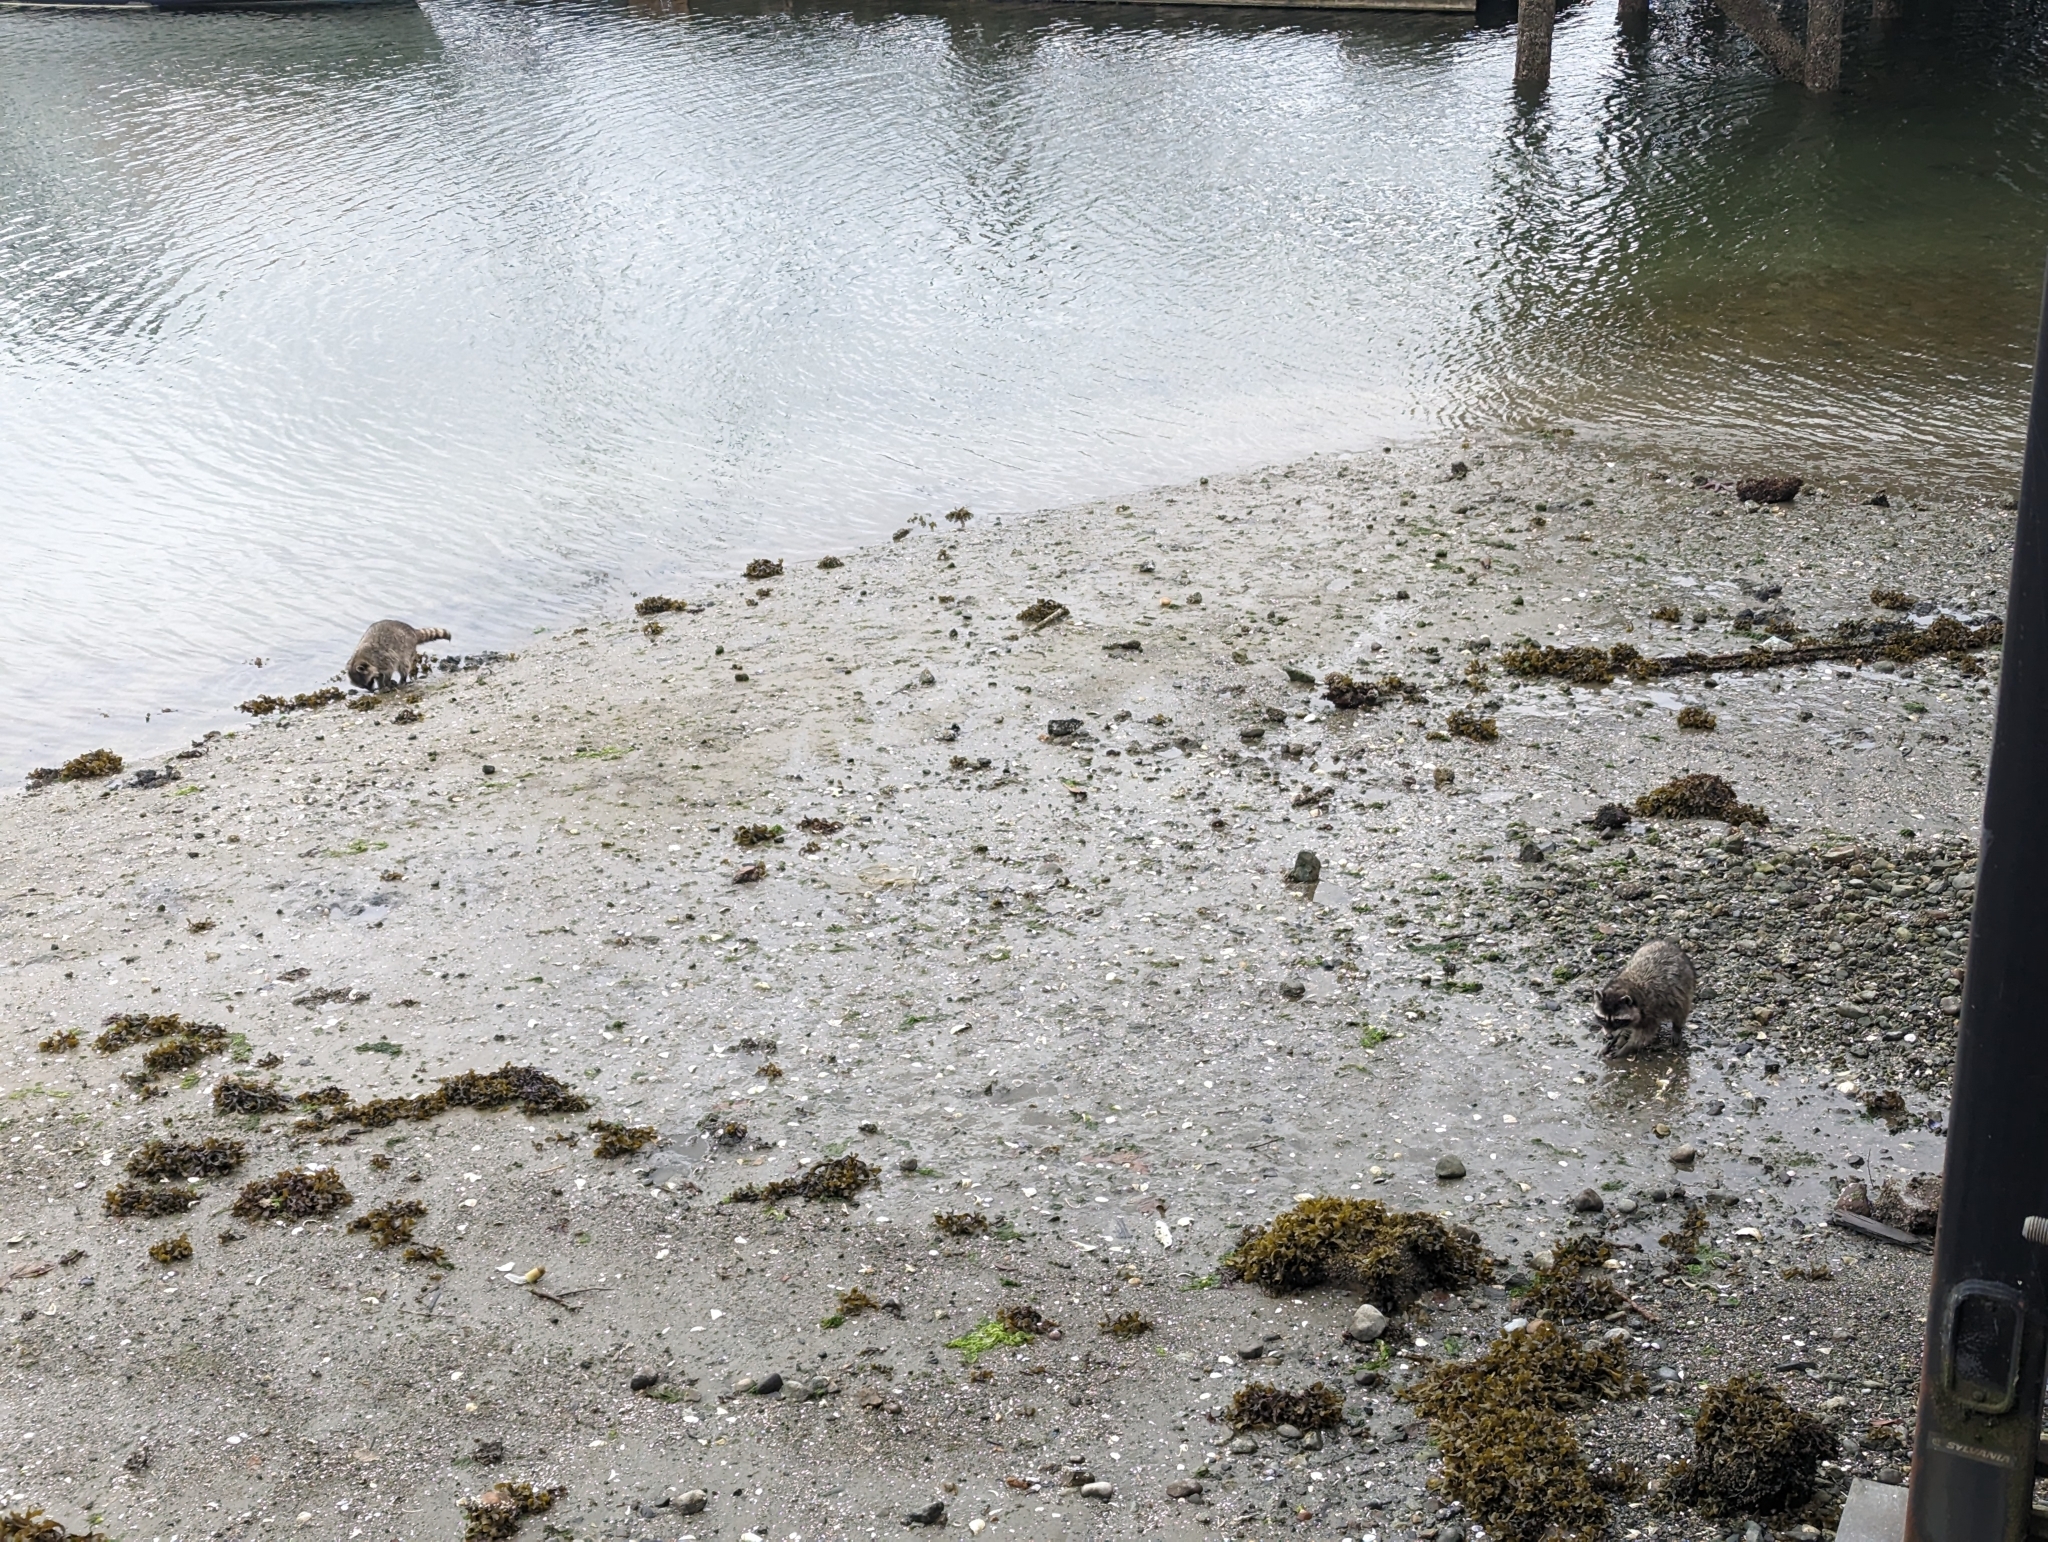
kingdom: Animalia
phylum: Chordata
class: Mammalia
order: Carnivora
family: Procyonidae
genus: Procyon
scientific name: Procyon lotor
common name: Raccoon
